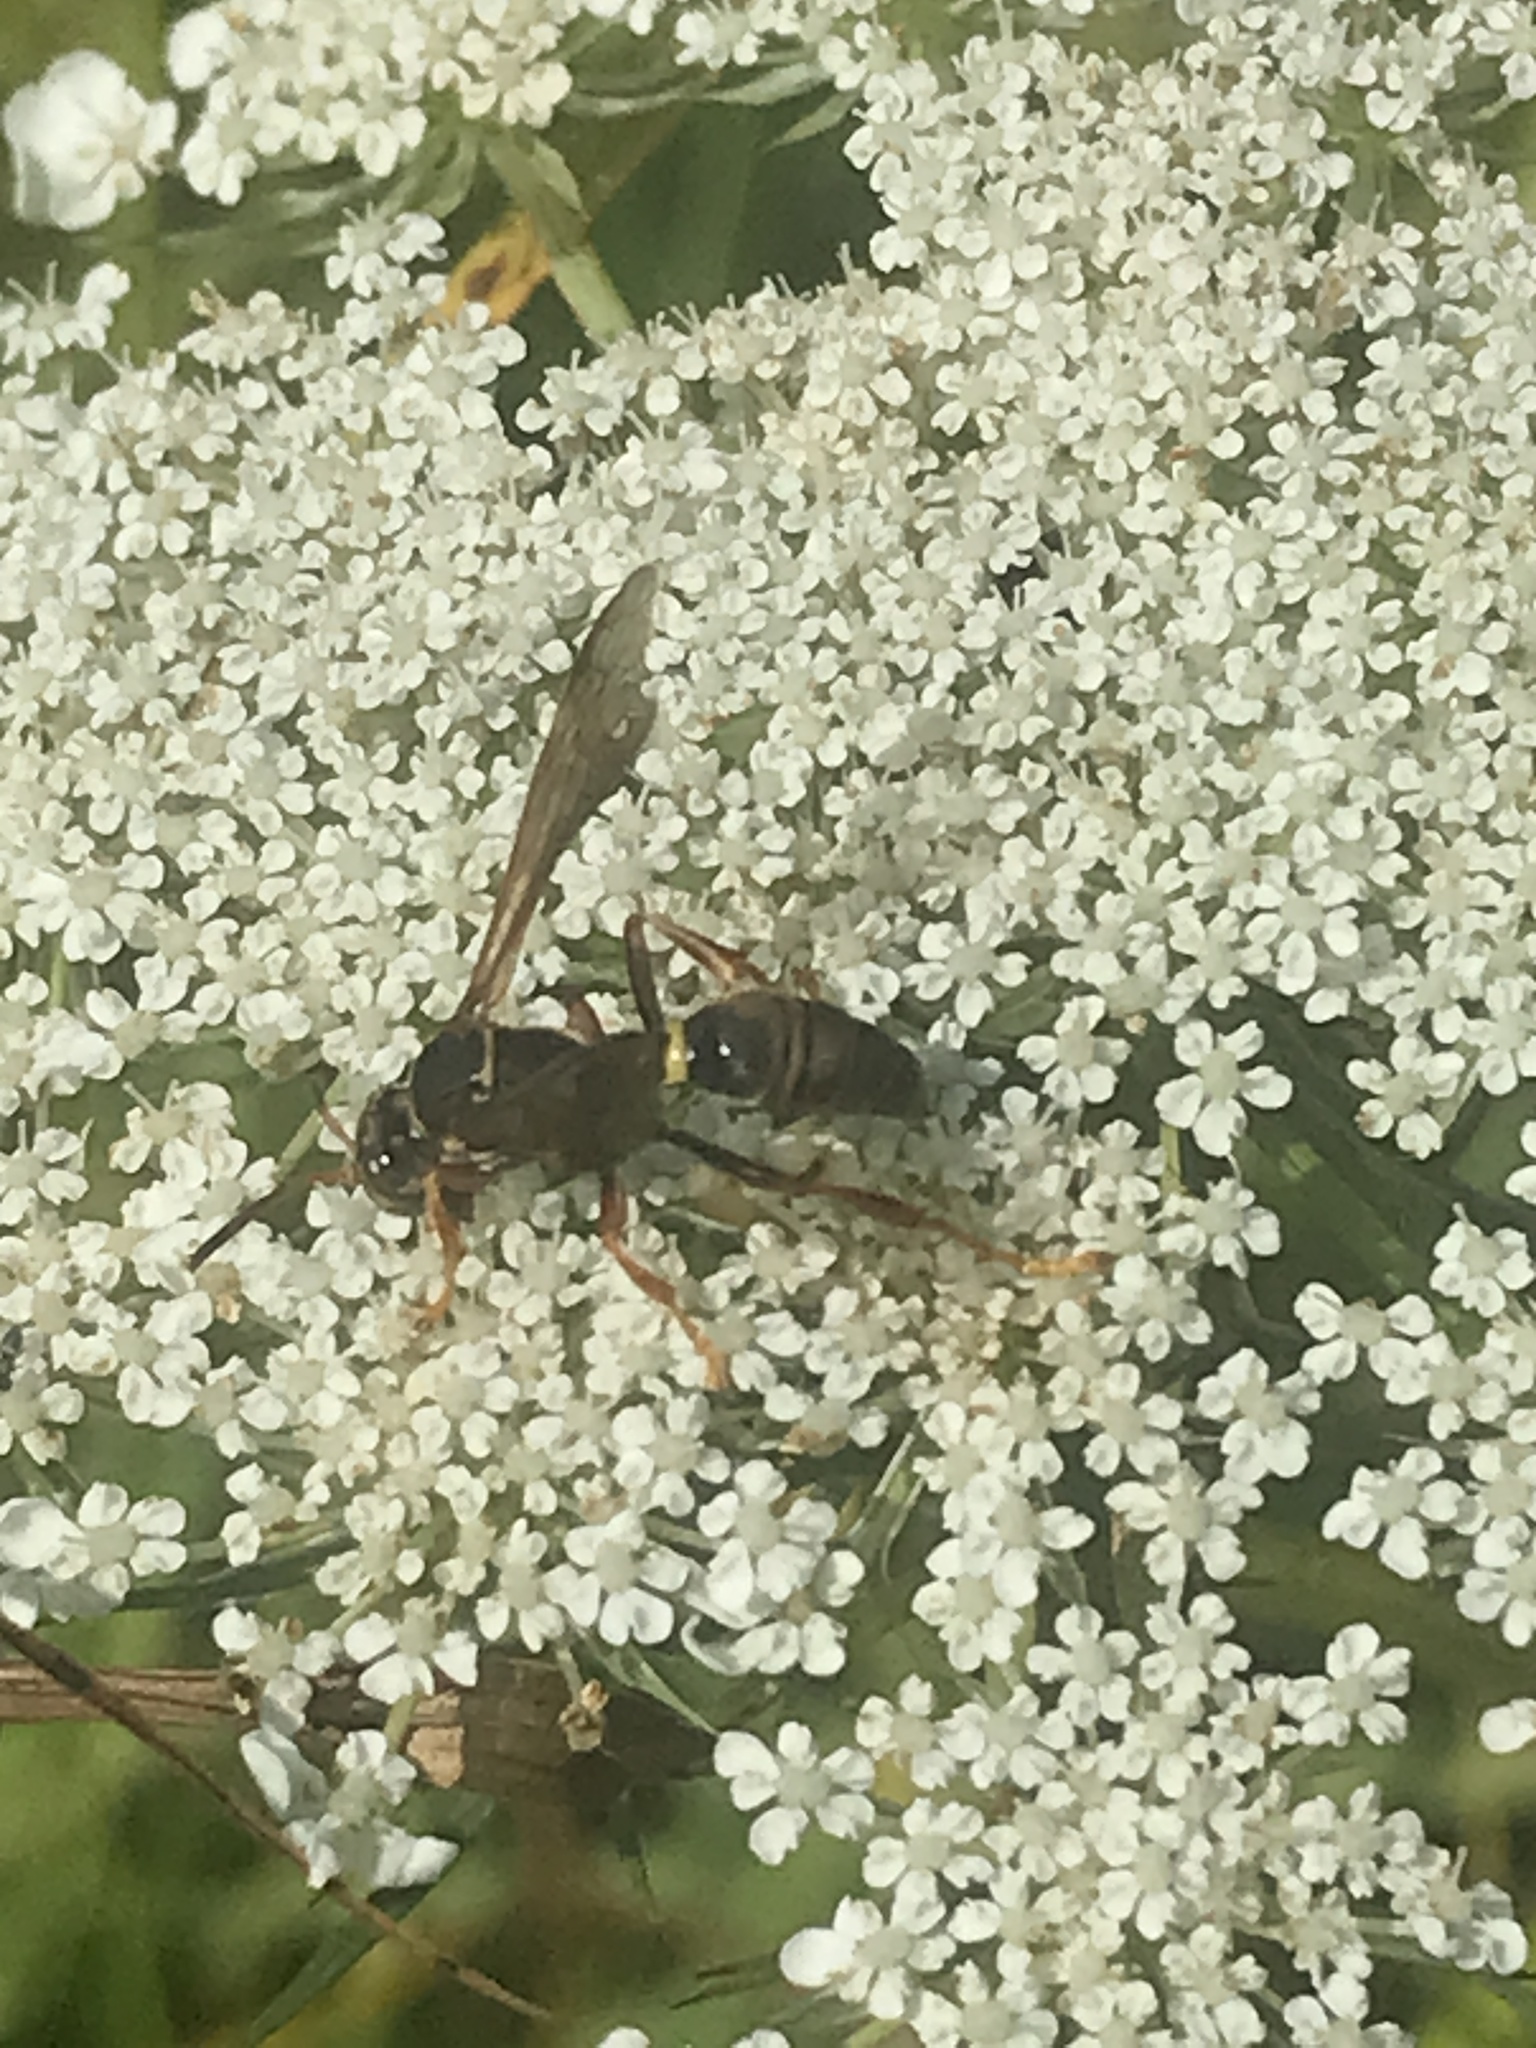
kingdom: Animalia
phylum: Arthropoda
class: Insecta
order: Hymenoptera
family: Crabronidae
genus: Saygorytes
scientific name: Saygorytes phaleratus
